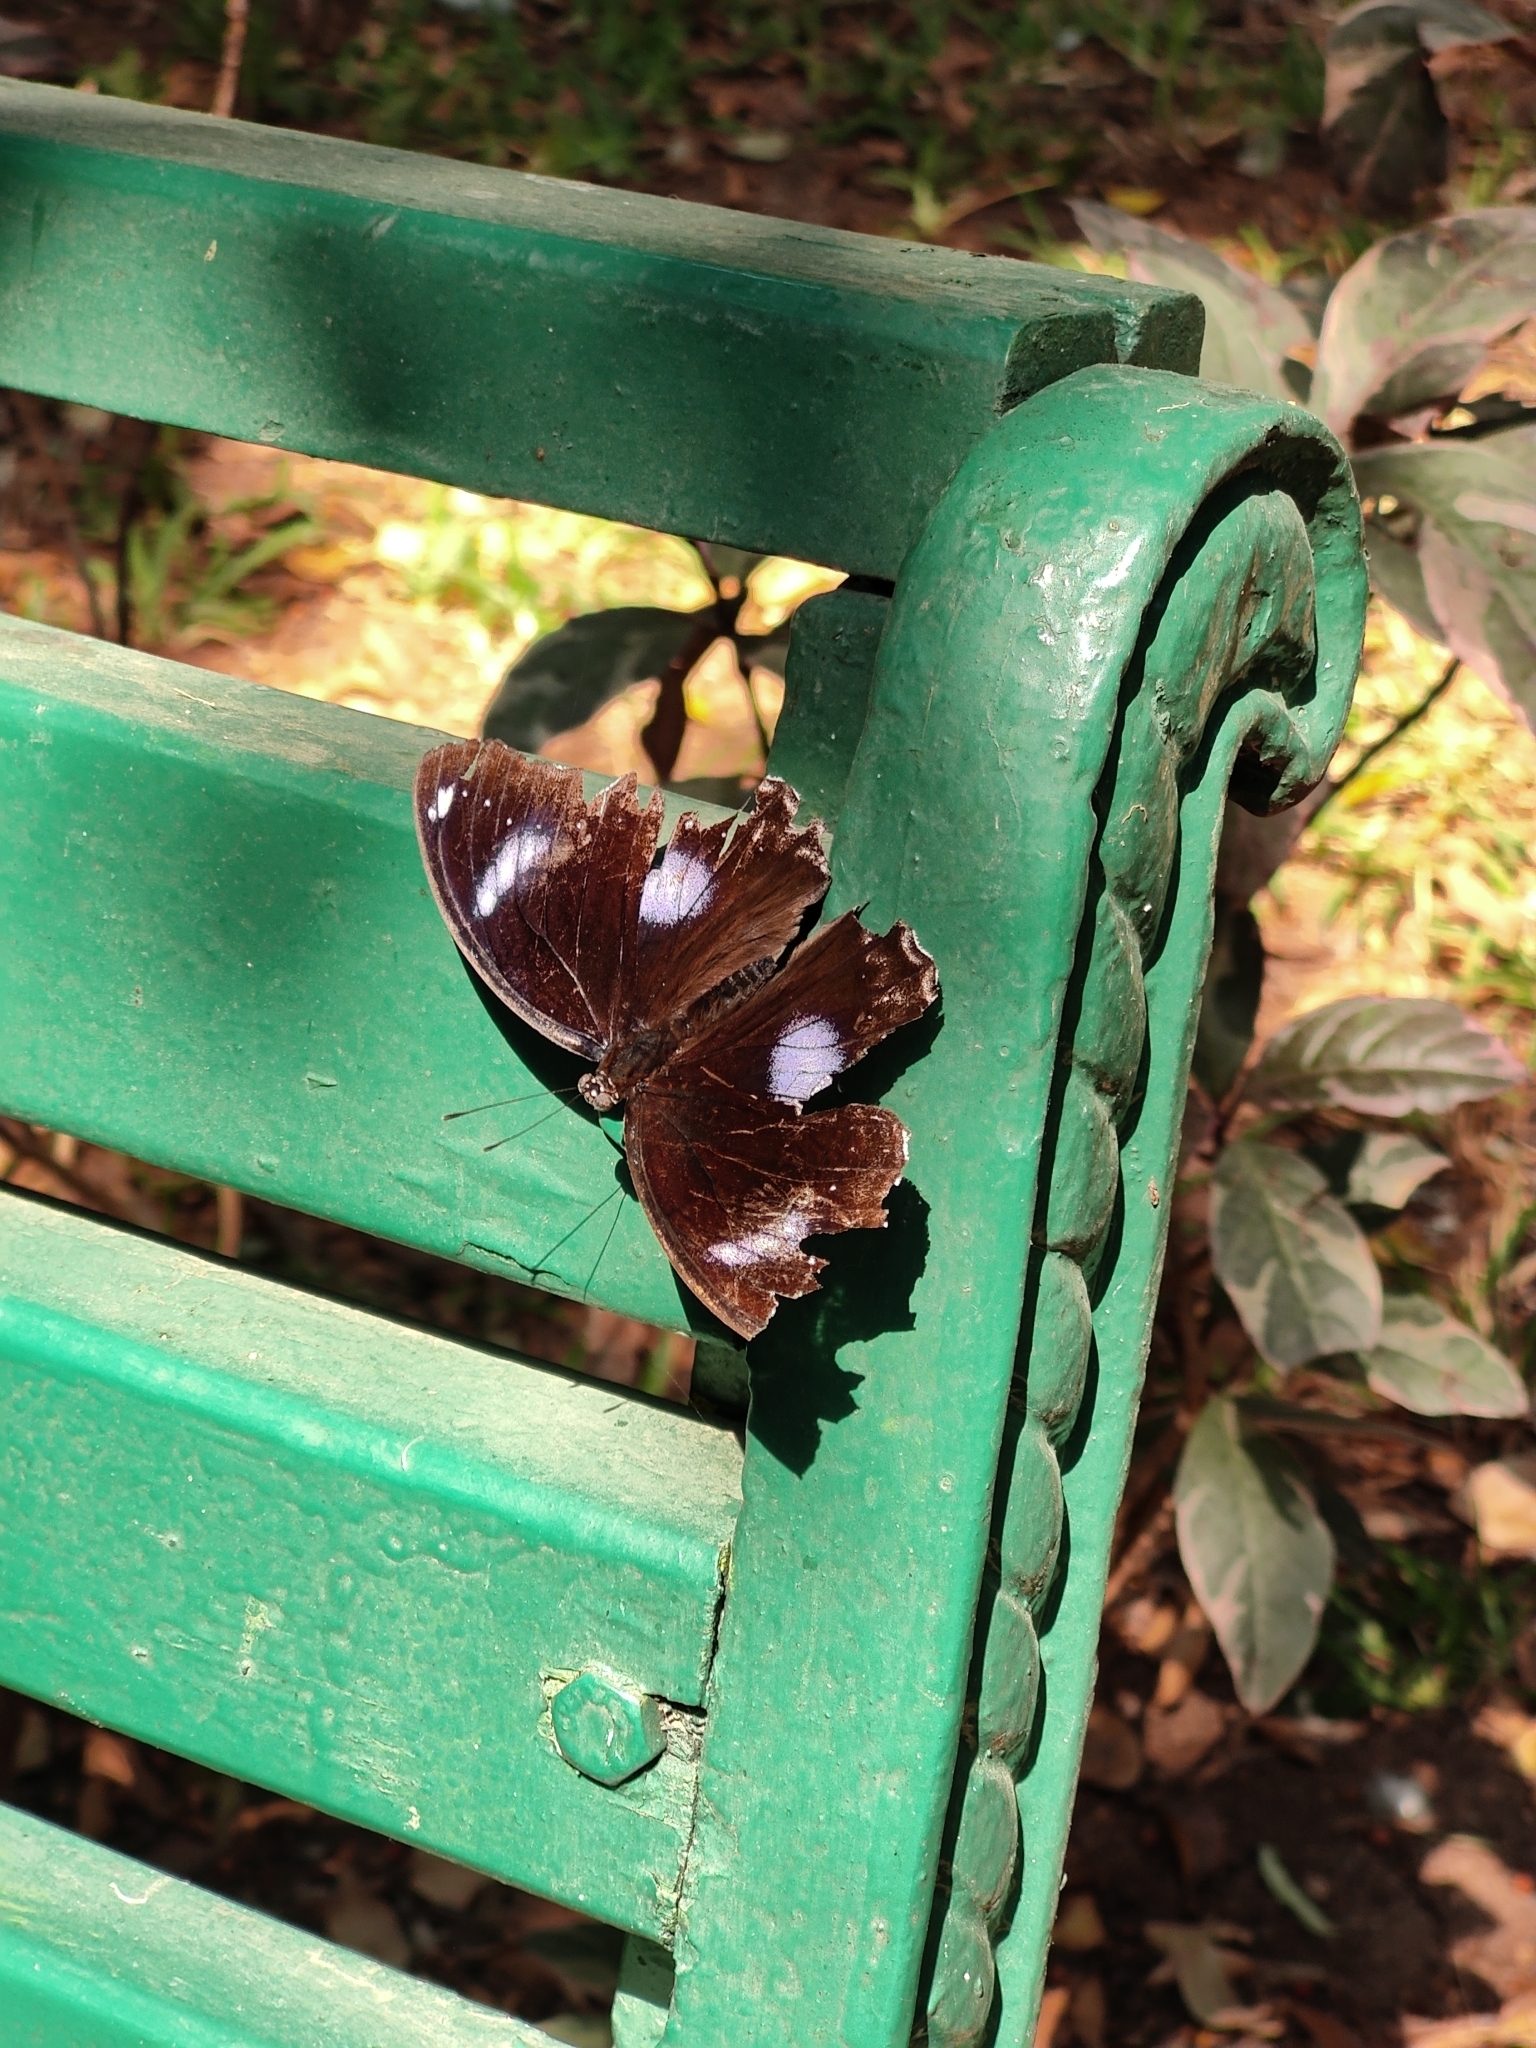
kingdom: Animalia
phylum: Arthropoda
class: Insecta
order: Lepidoptera
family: Nymphalidae
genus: Hypolimnas
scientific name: Hypolimnas bolina
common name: Great eggfly
